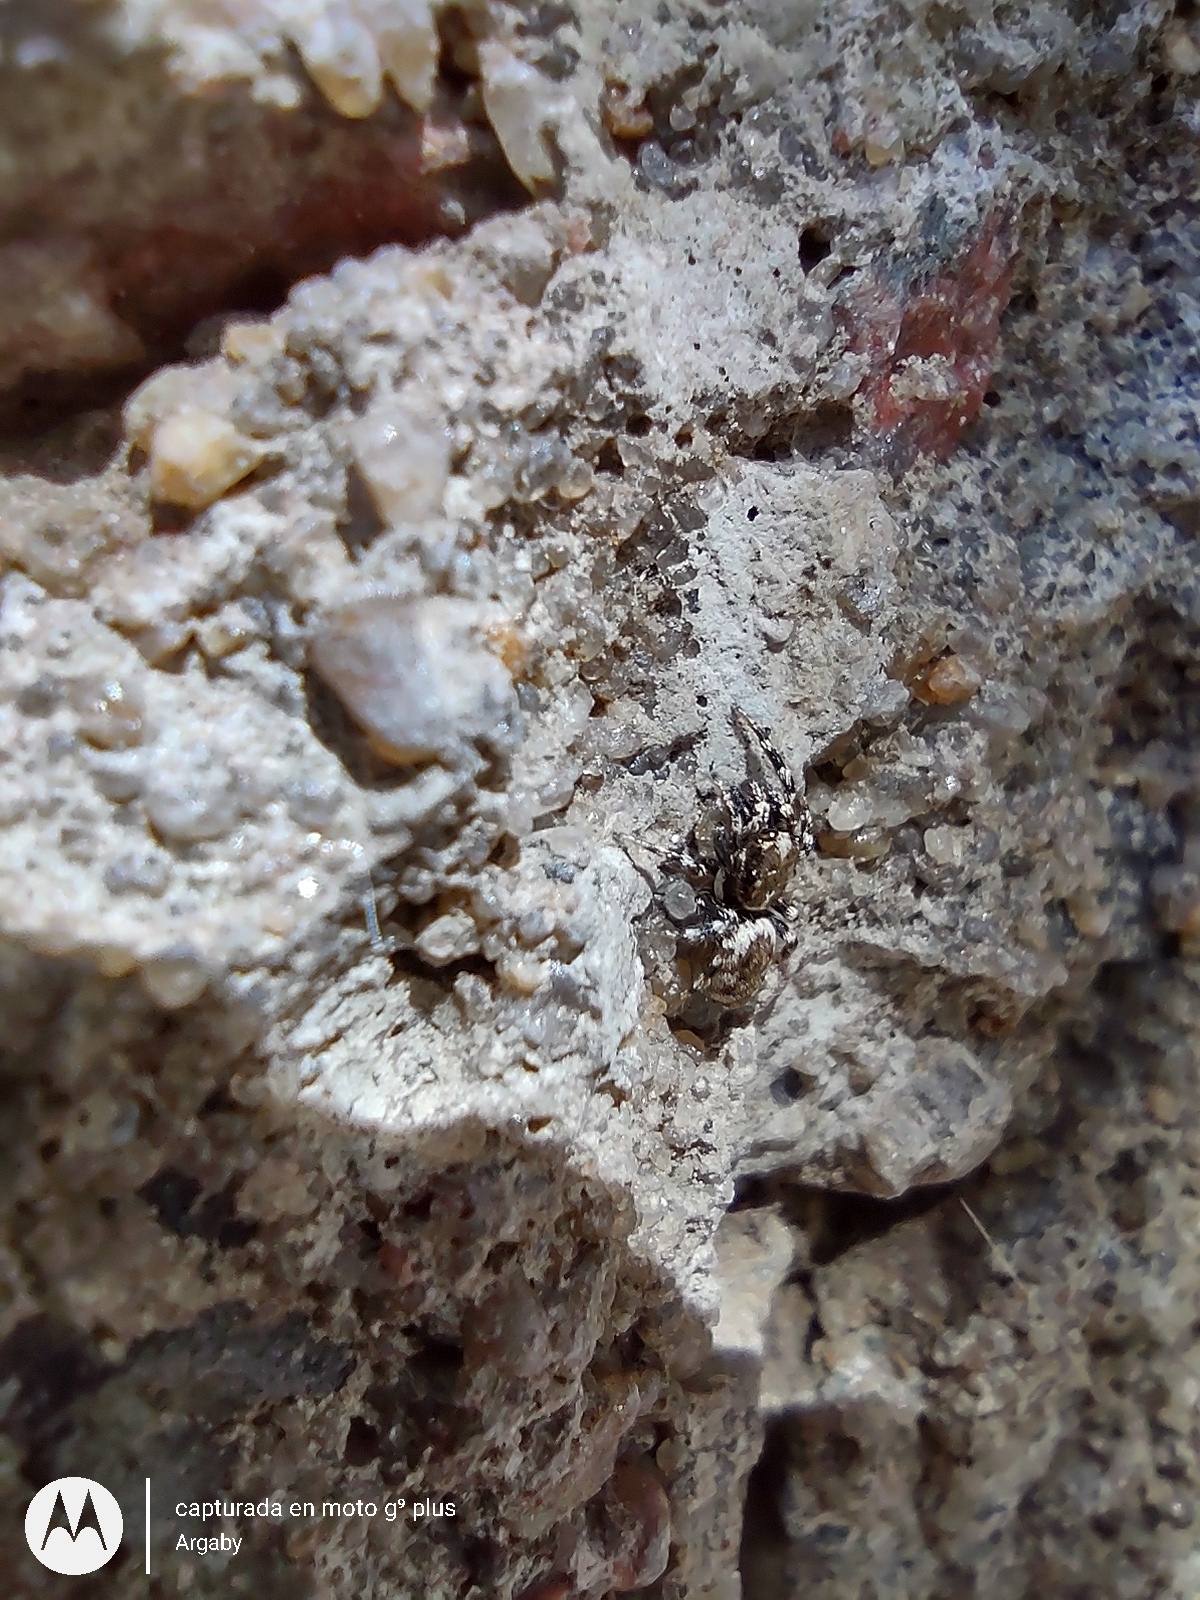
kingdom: Animalia
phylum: Arthropoda
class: Arachnida
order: Araneae
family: Salticidae
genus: Salticus
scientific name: Salticus mutabilis
